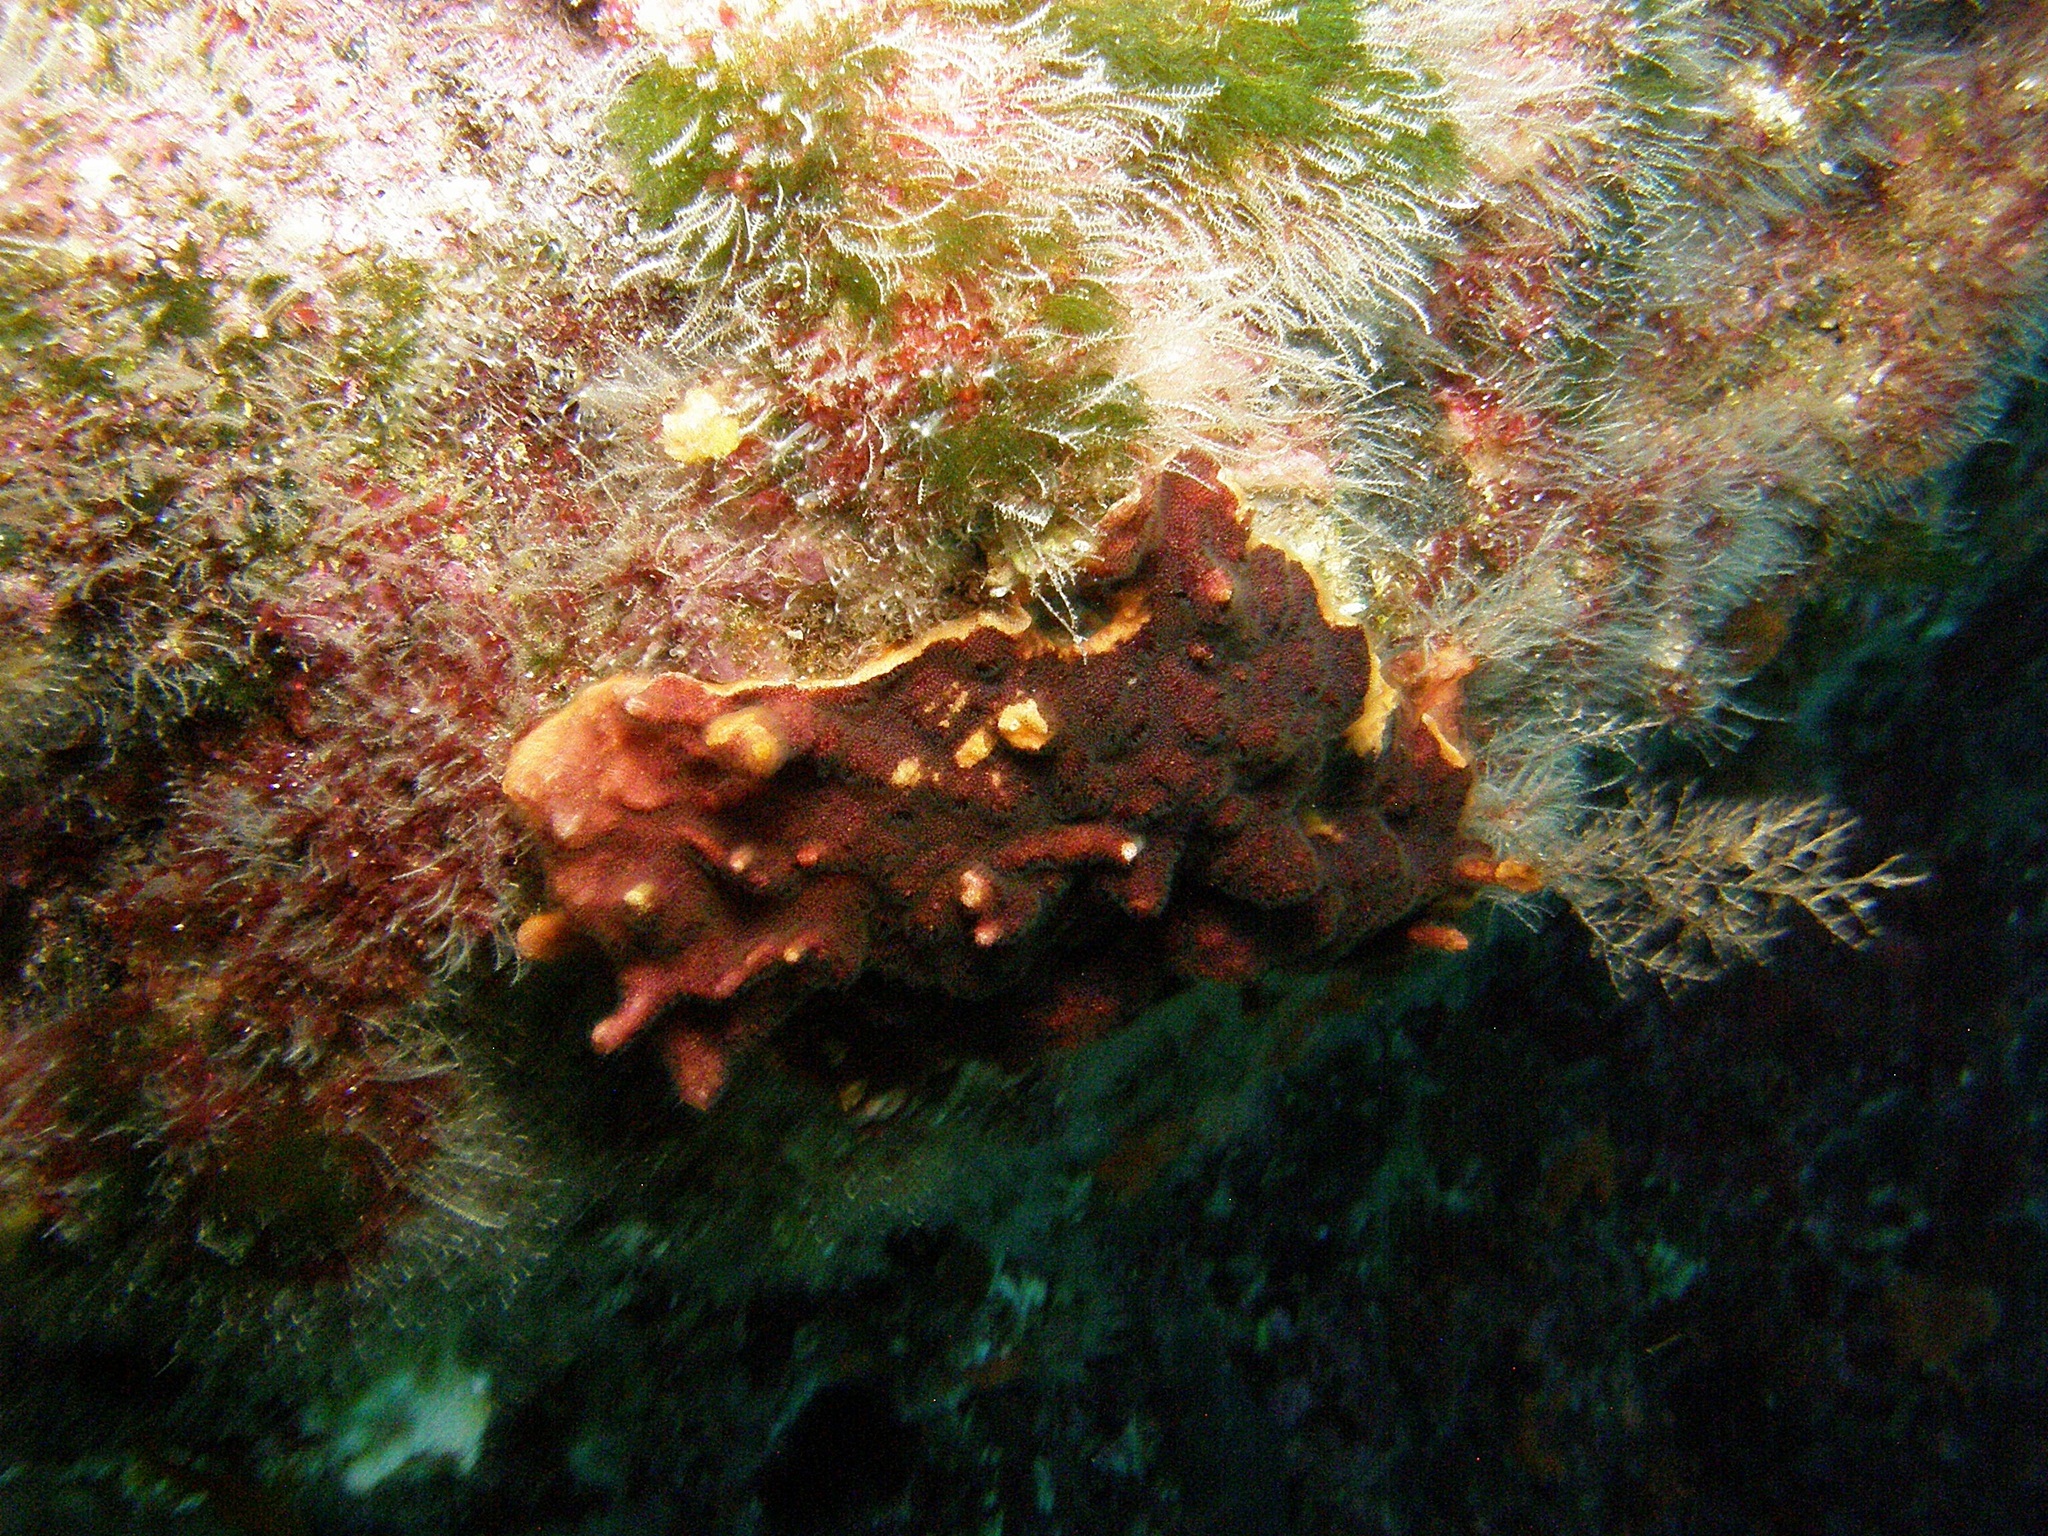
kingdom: Animalia
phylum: Bryozoa
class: Gymnolaemata
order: Cheilostomatida
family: Schizoporellidae
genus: Schizoporella
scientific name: Schizoporella errata
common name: Branching bryozoan
